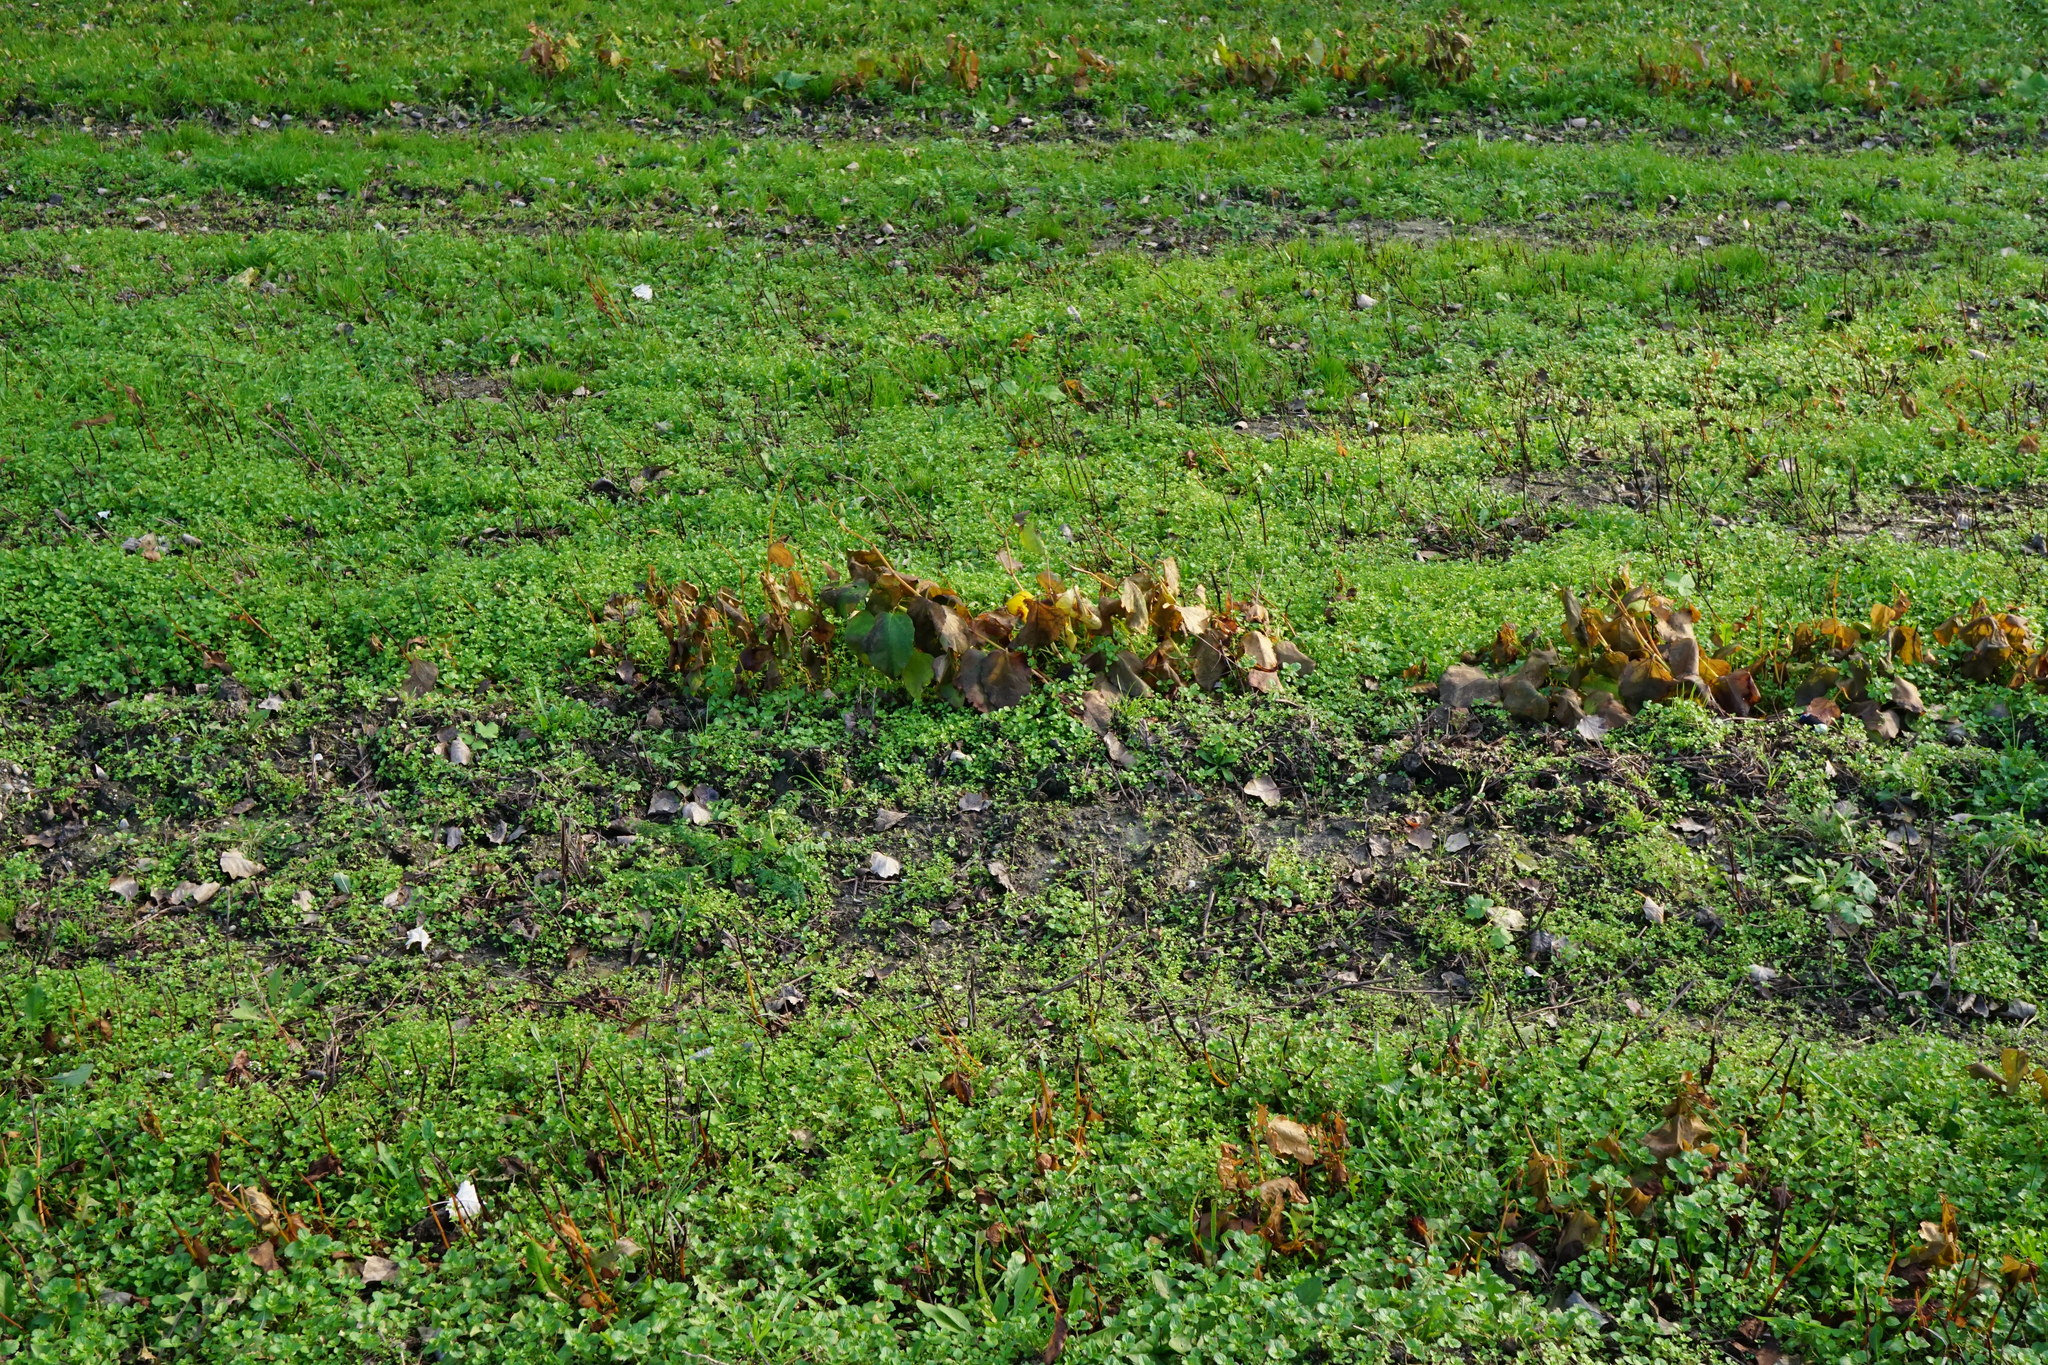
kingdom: Plantae
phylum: Tracheophyta
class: Magnoliopsida
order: Caryophyllales
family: Polygonaceae
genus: Reynoutria
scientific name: Reynoutria bohemica
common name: Bohemian knotweed
